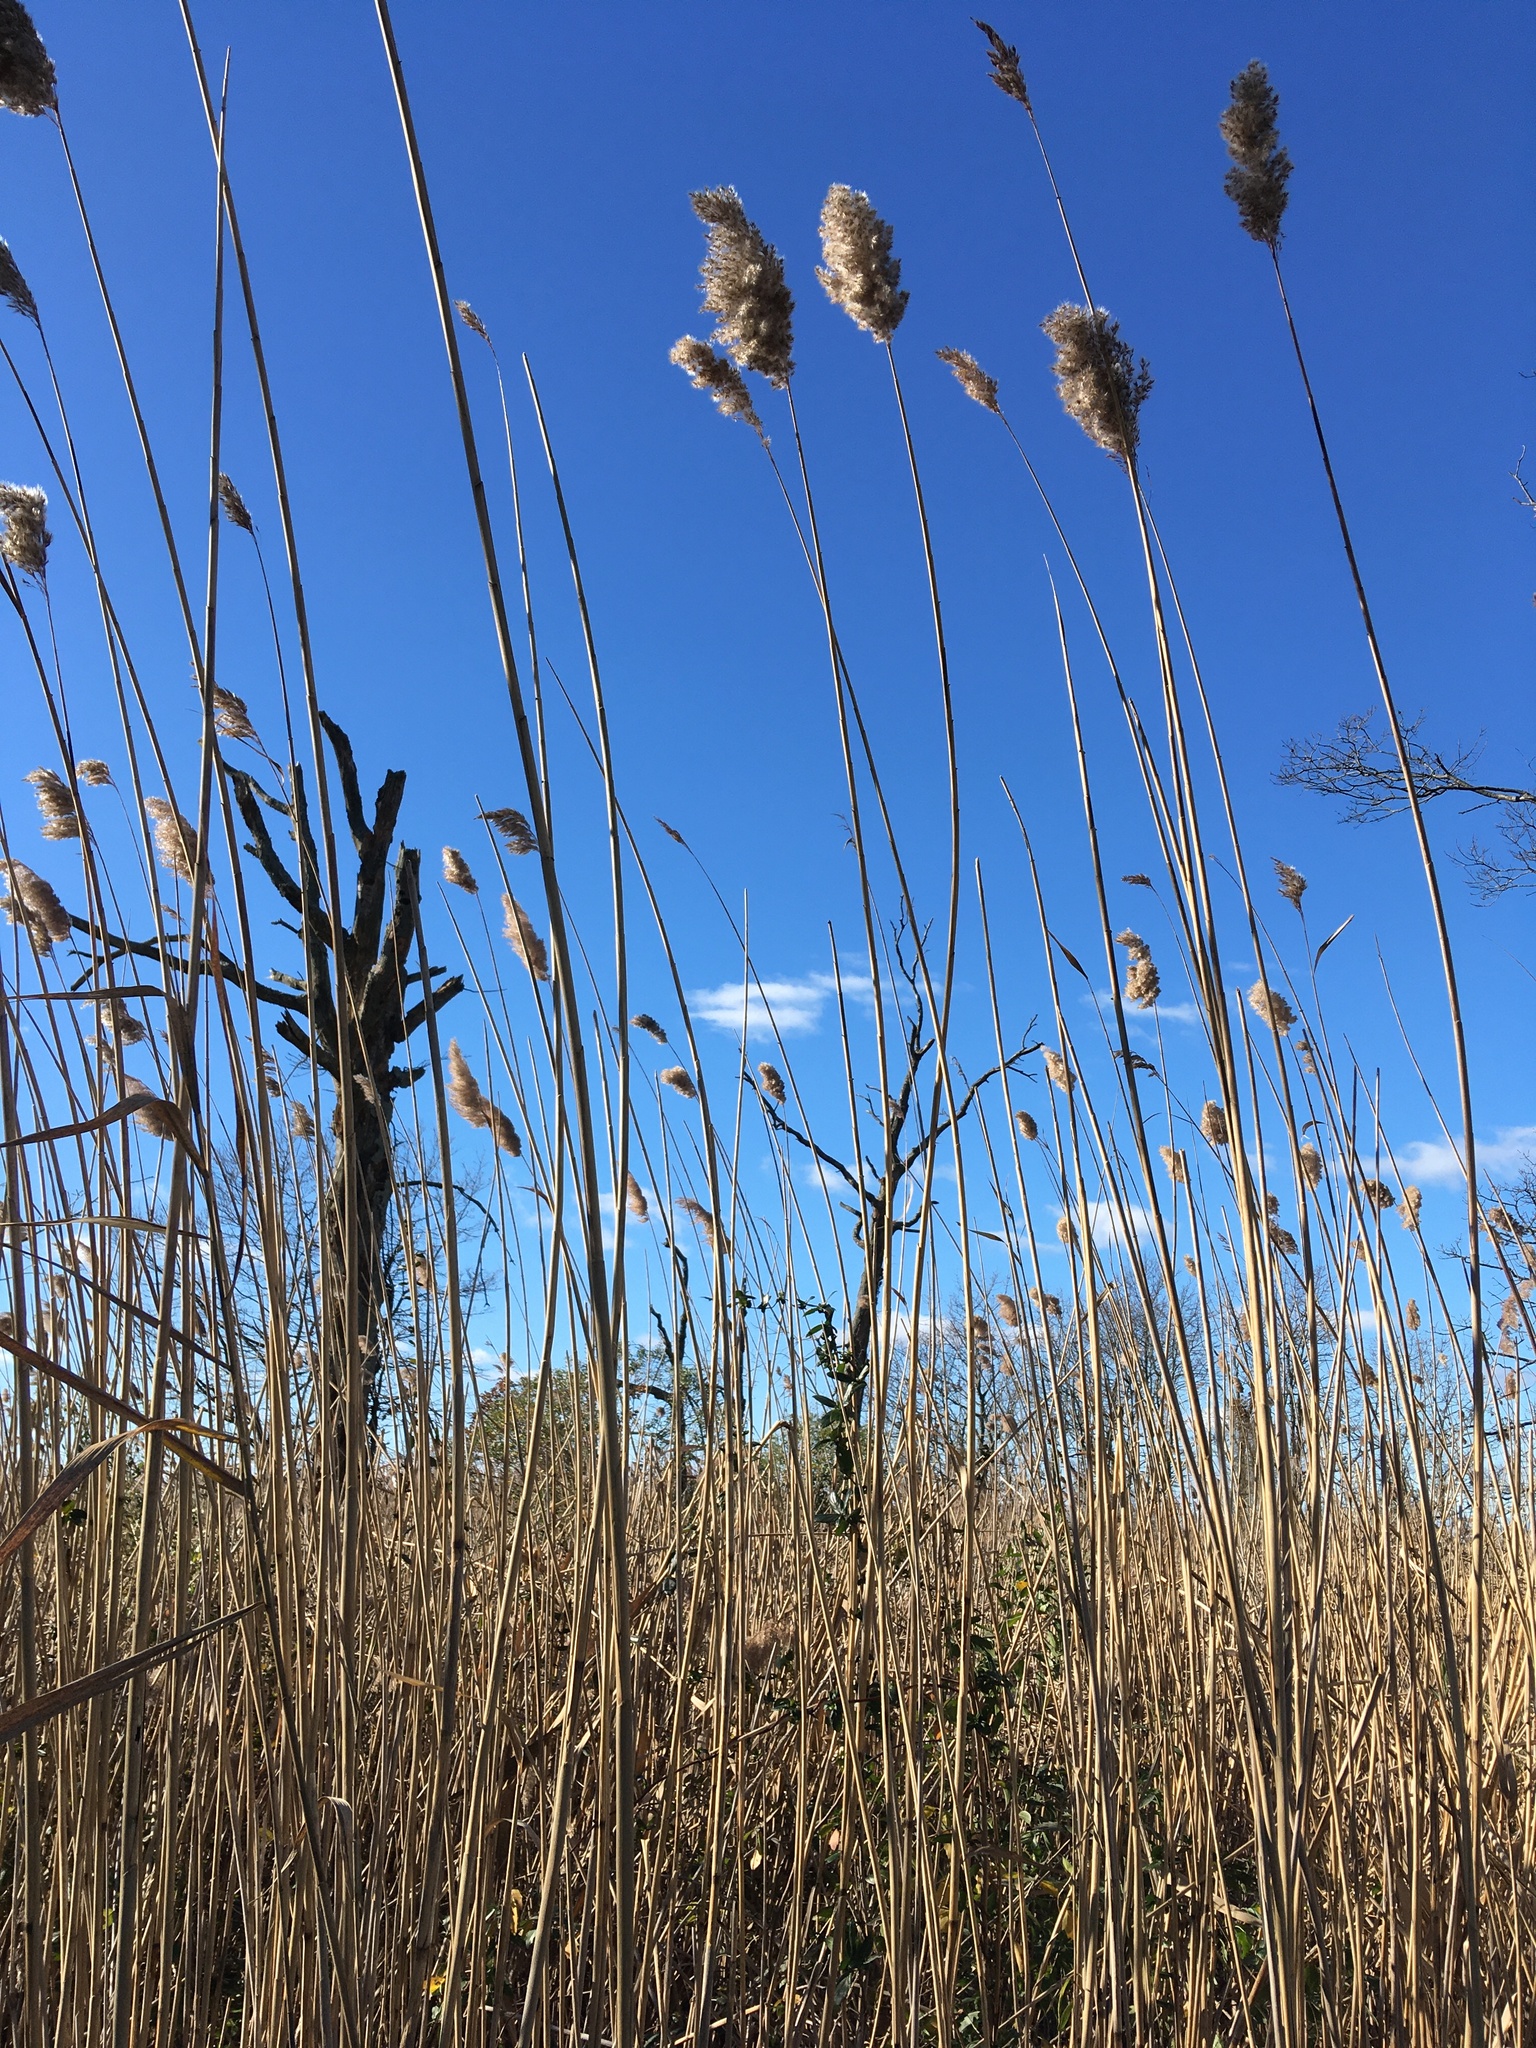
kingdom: Plantae
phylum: Tracheophyta
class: Liliopsida
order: Poales
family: Poaceae
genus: Phragmites
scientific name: Phragmites australis
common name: Common reed
